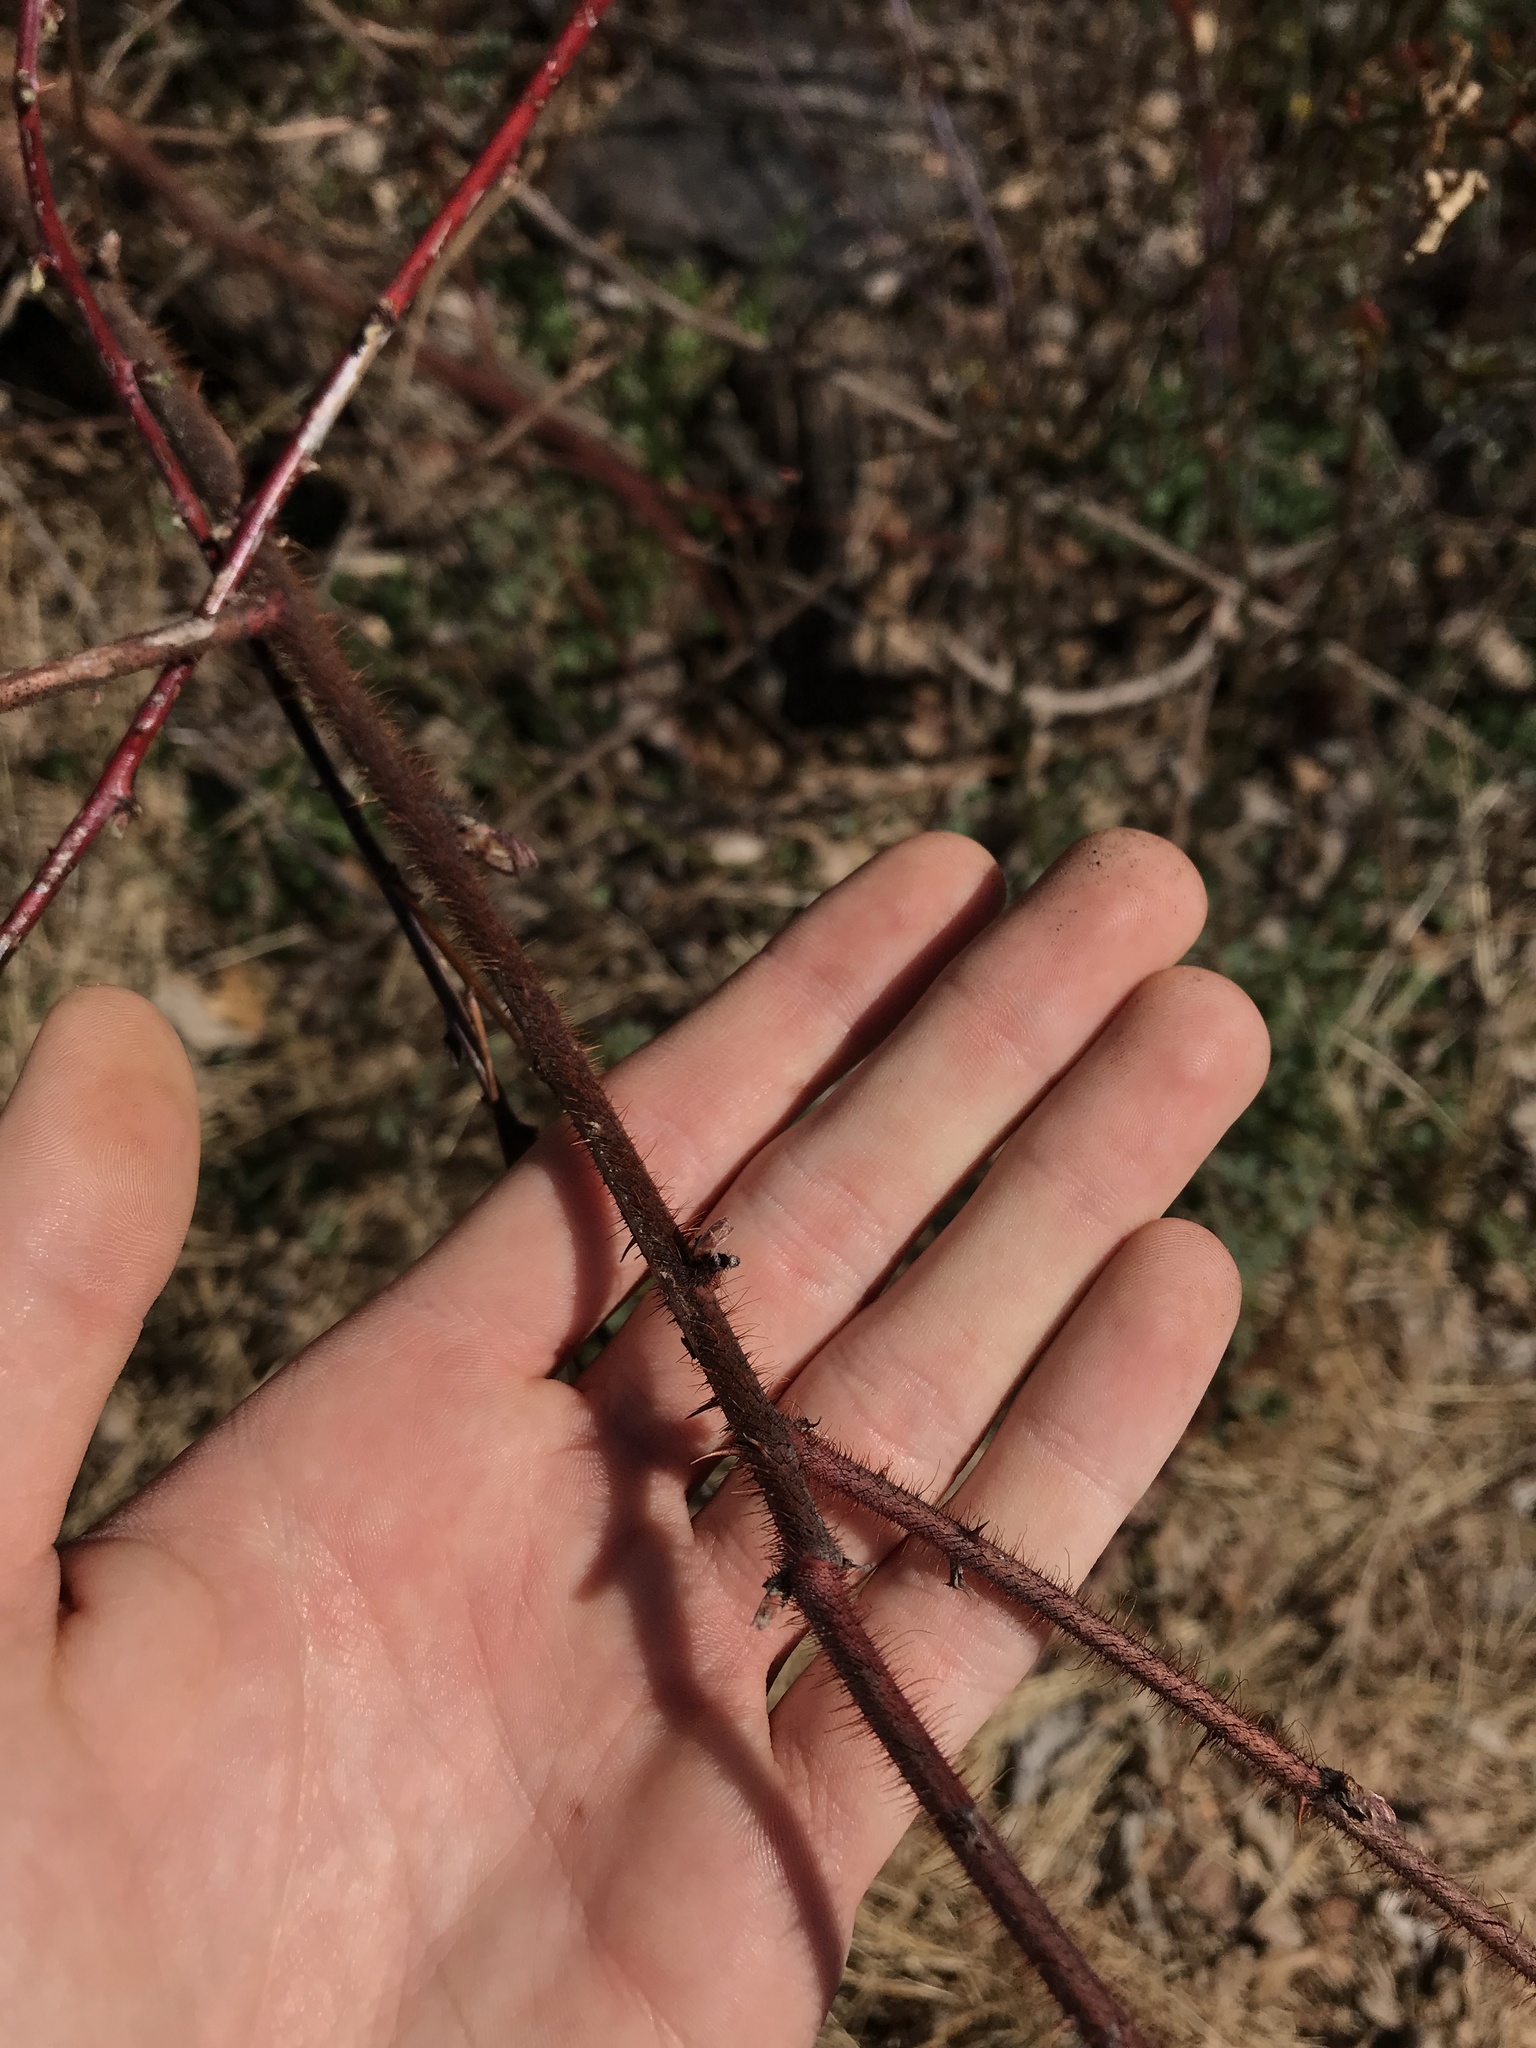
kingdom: Plantae
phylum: Tracheophyta
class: Magnoliopsida
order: Rosales
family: Rosaceae
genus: Rubus
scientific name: Rubus phoenicolasius
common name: Japanese wineberry
